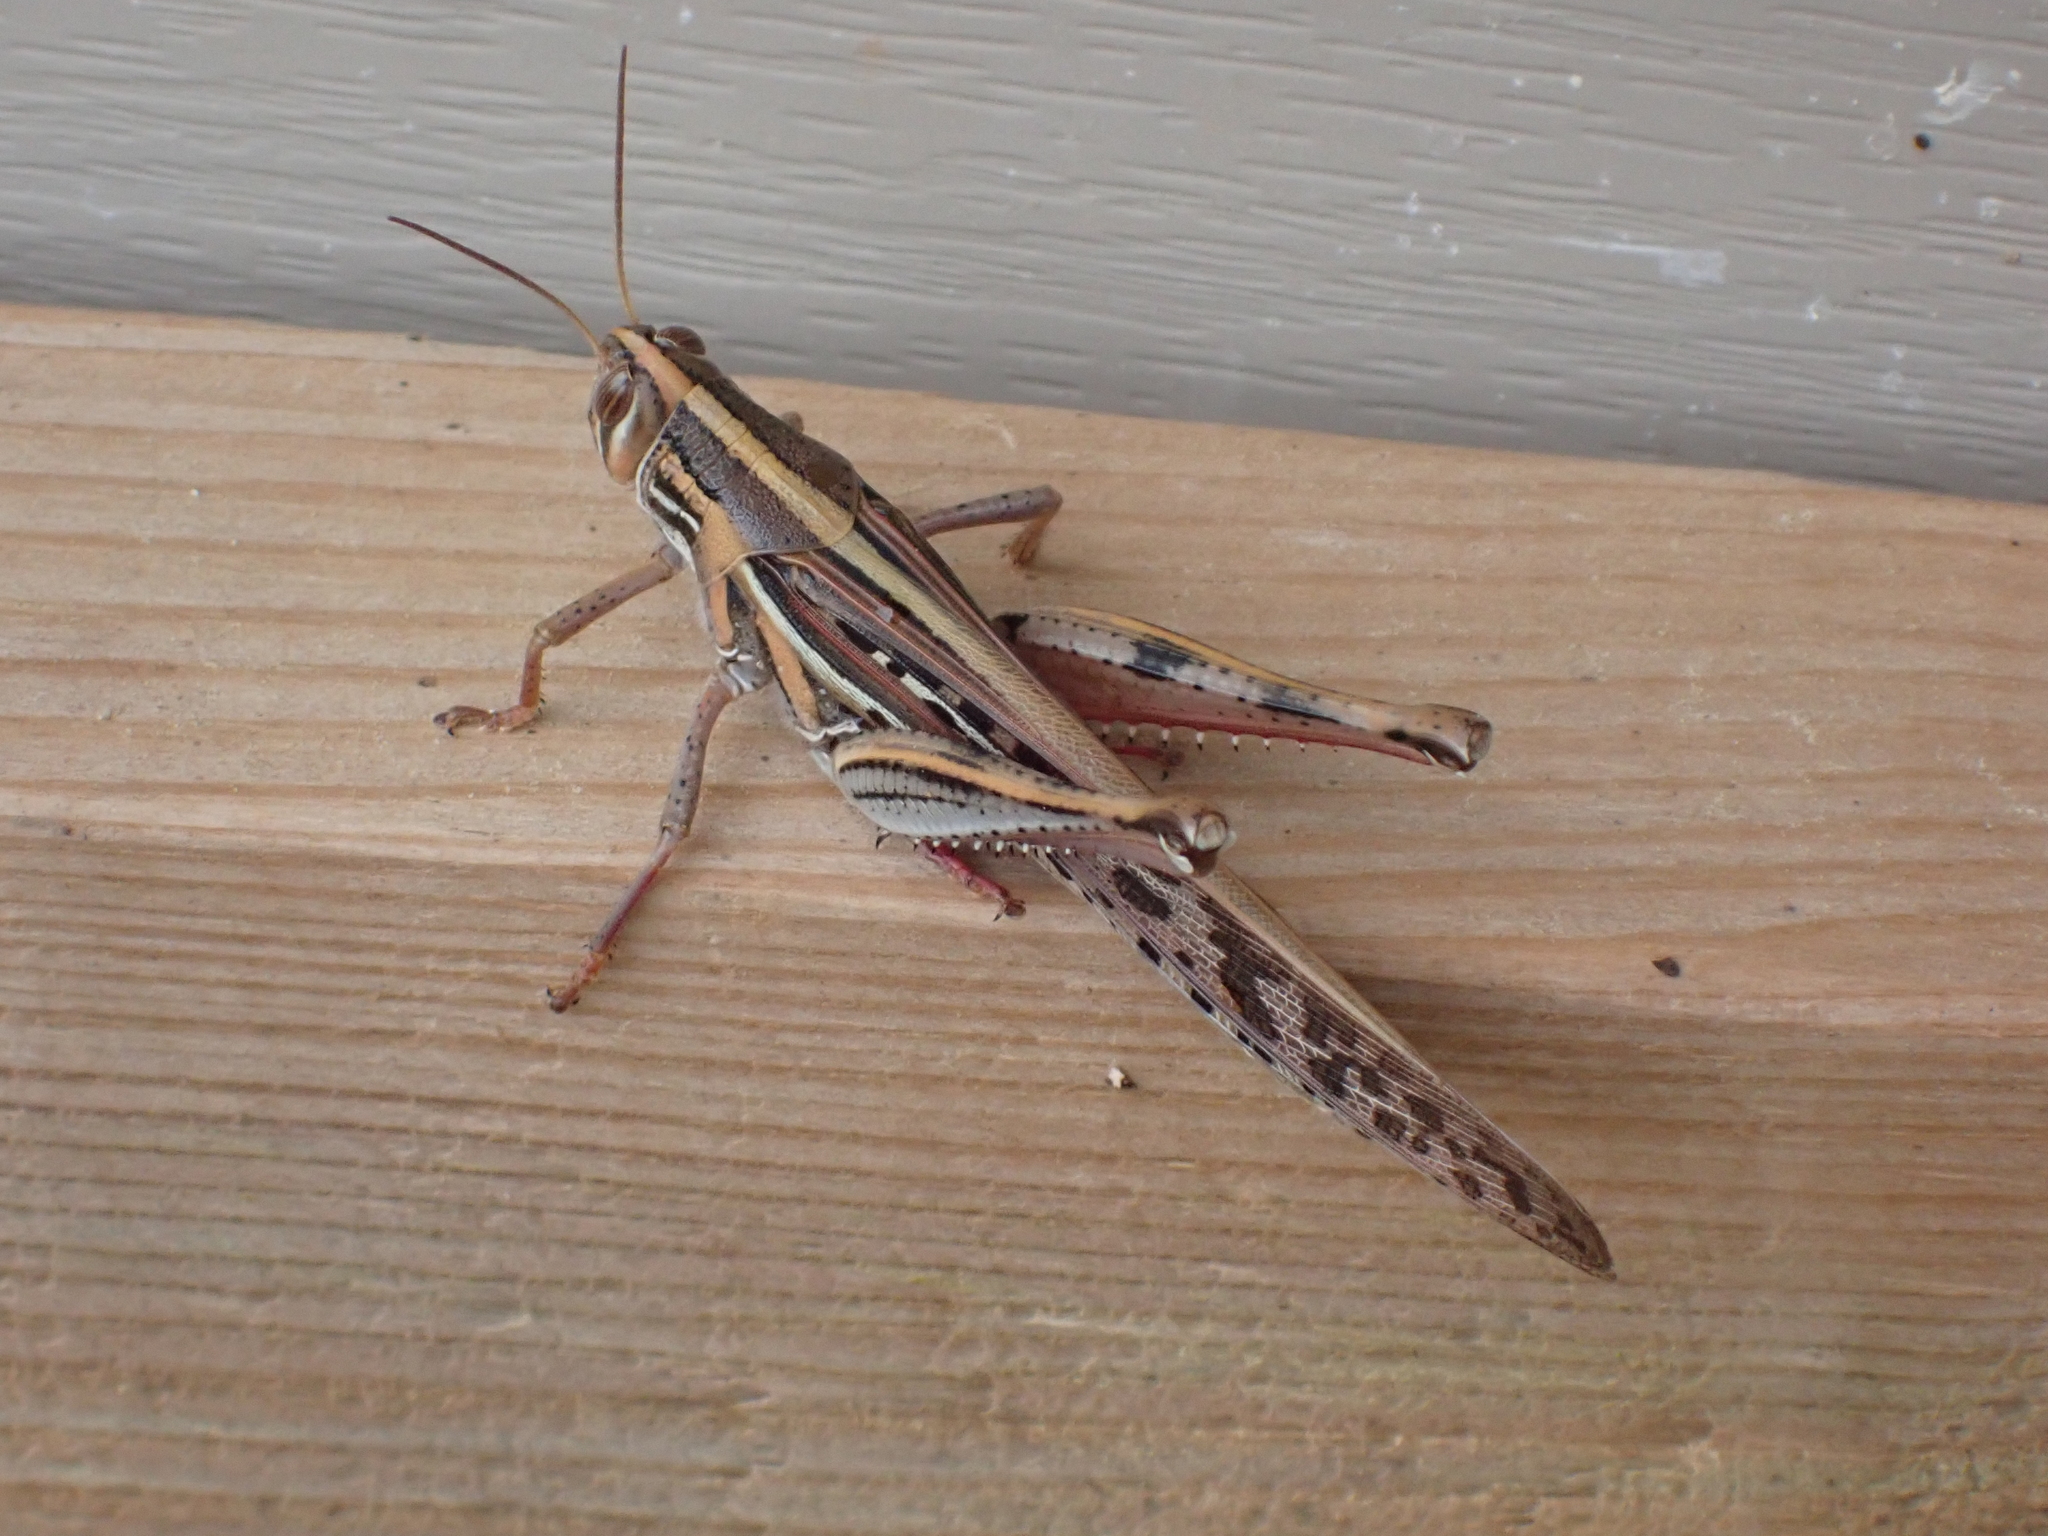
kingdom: Animalia
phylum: Arthropoda
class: Insecta
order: Orthoptera
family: Acrididae
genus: Schistocerca
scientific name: Schistocerca americana
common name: American bird locust
